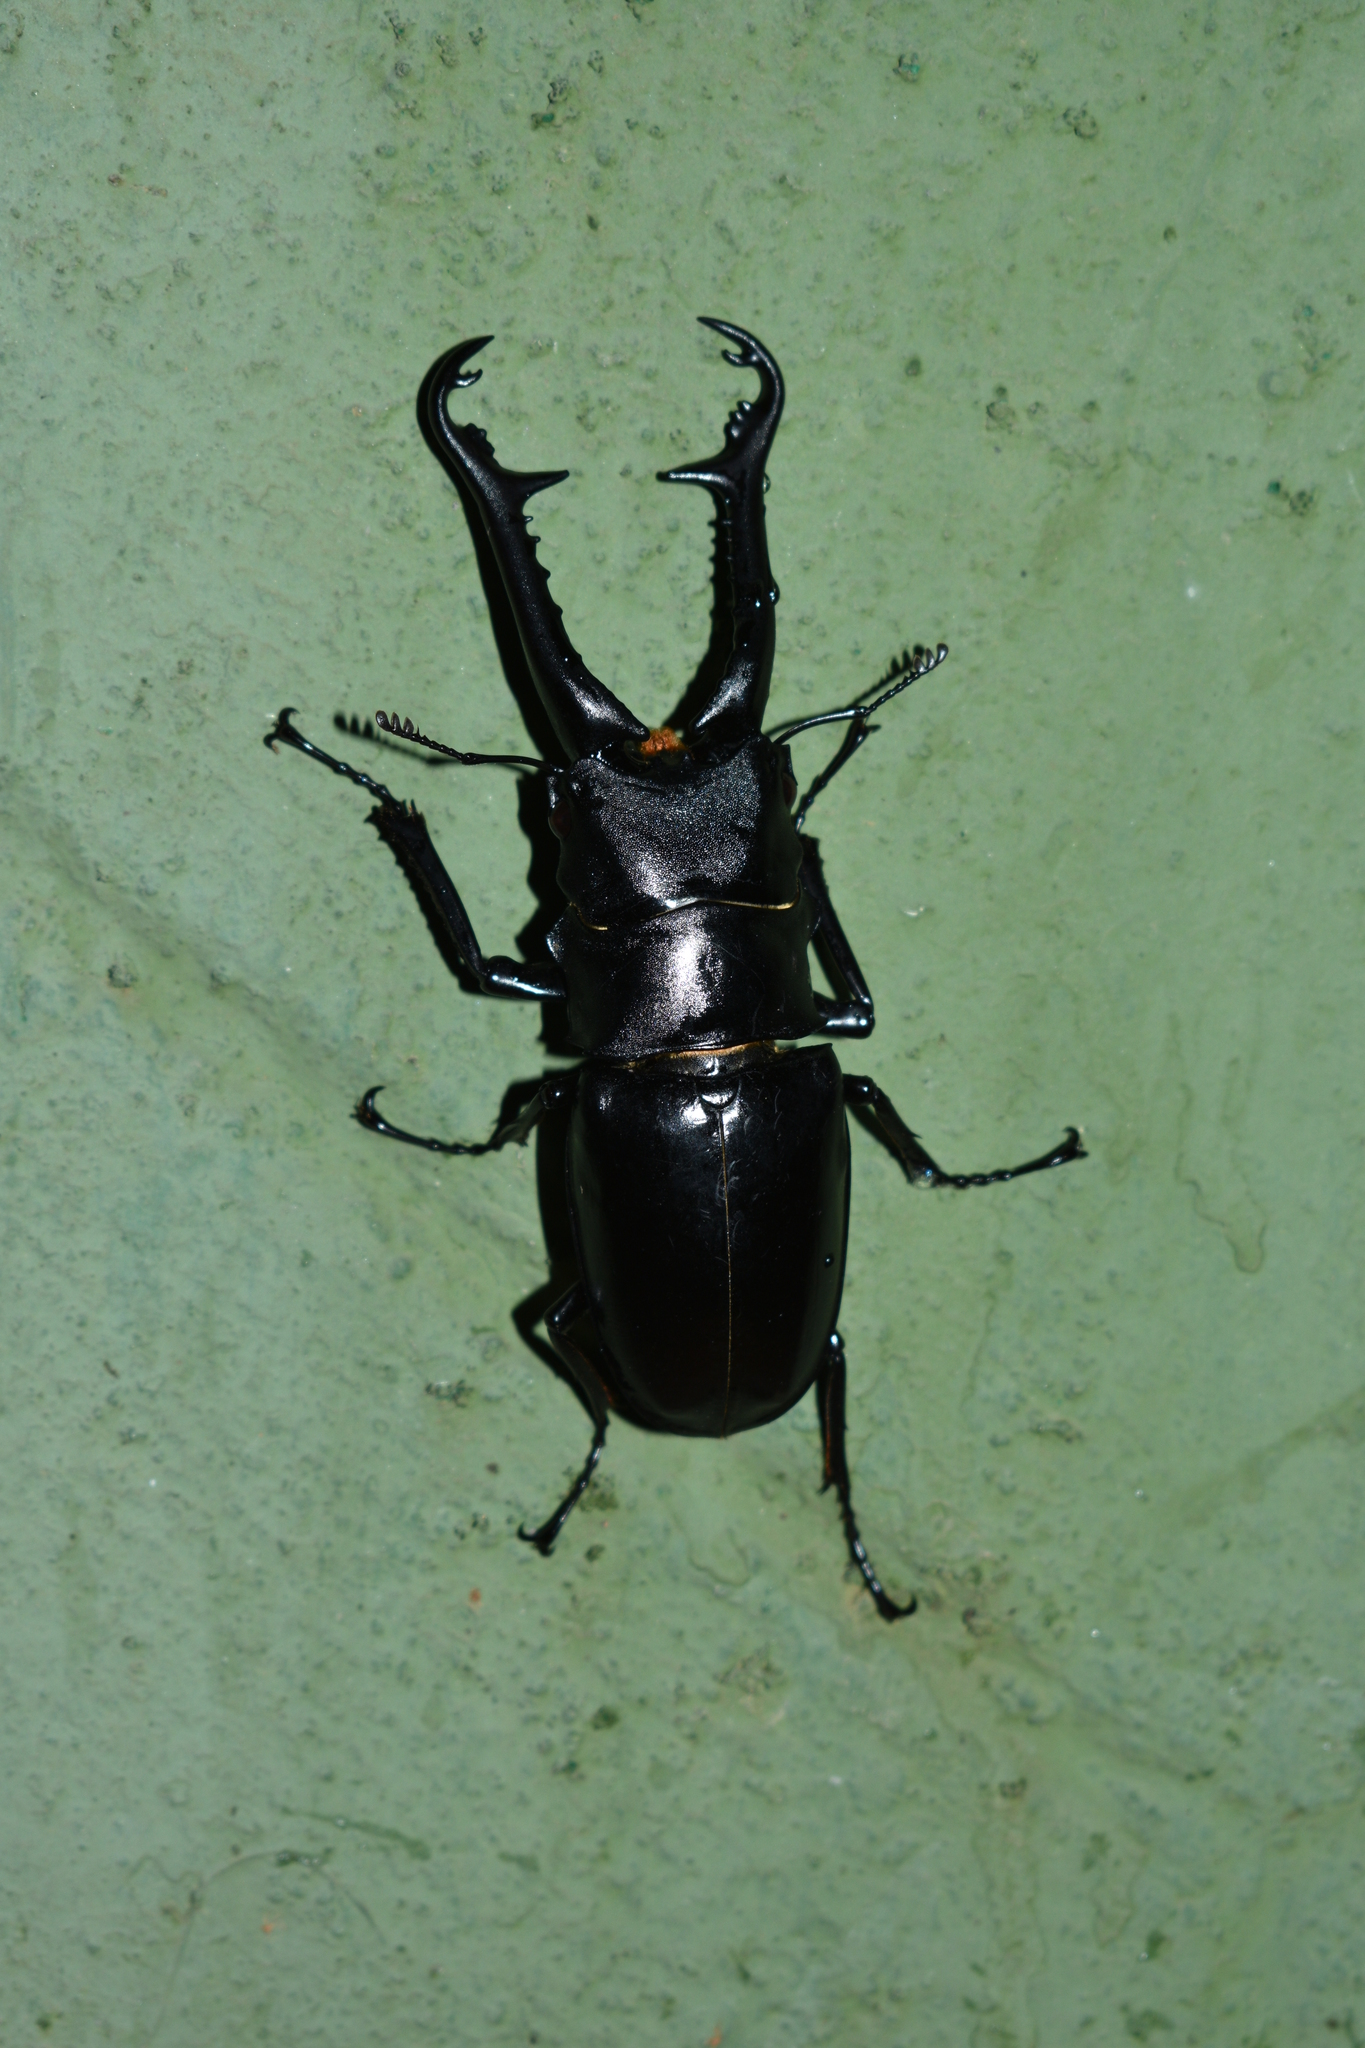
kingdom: Animalia
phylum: Arthropoda
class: Insecta
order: Coleoptera
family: Lucanidae
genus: Prosopocoilus
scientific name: Prosopocoilus girafa
